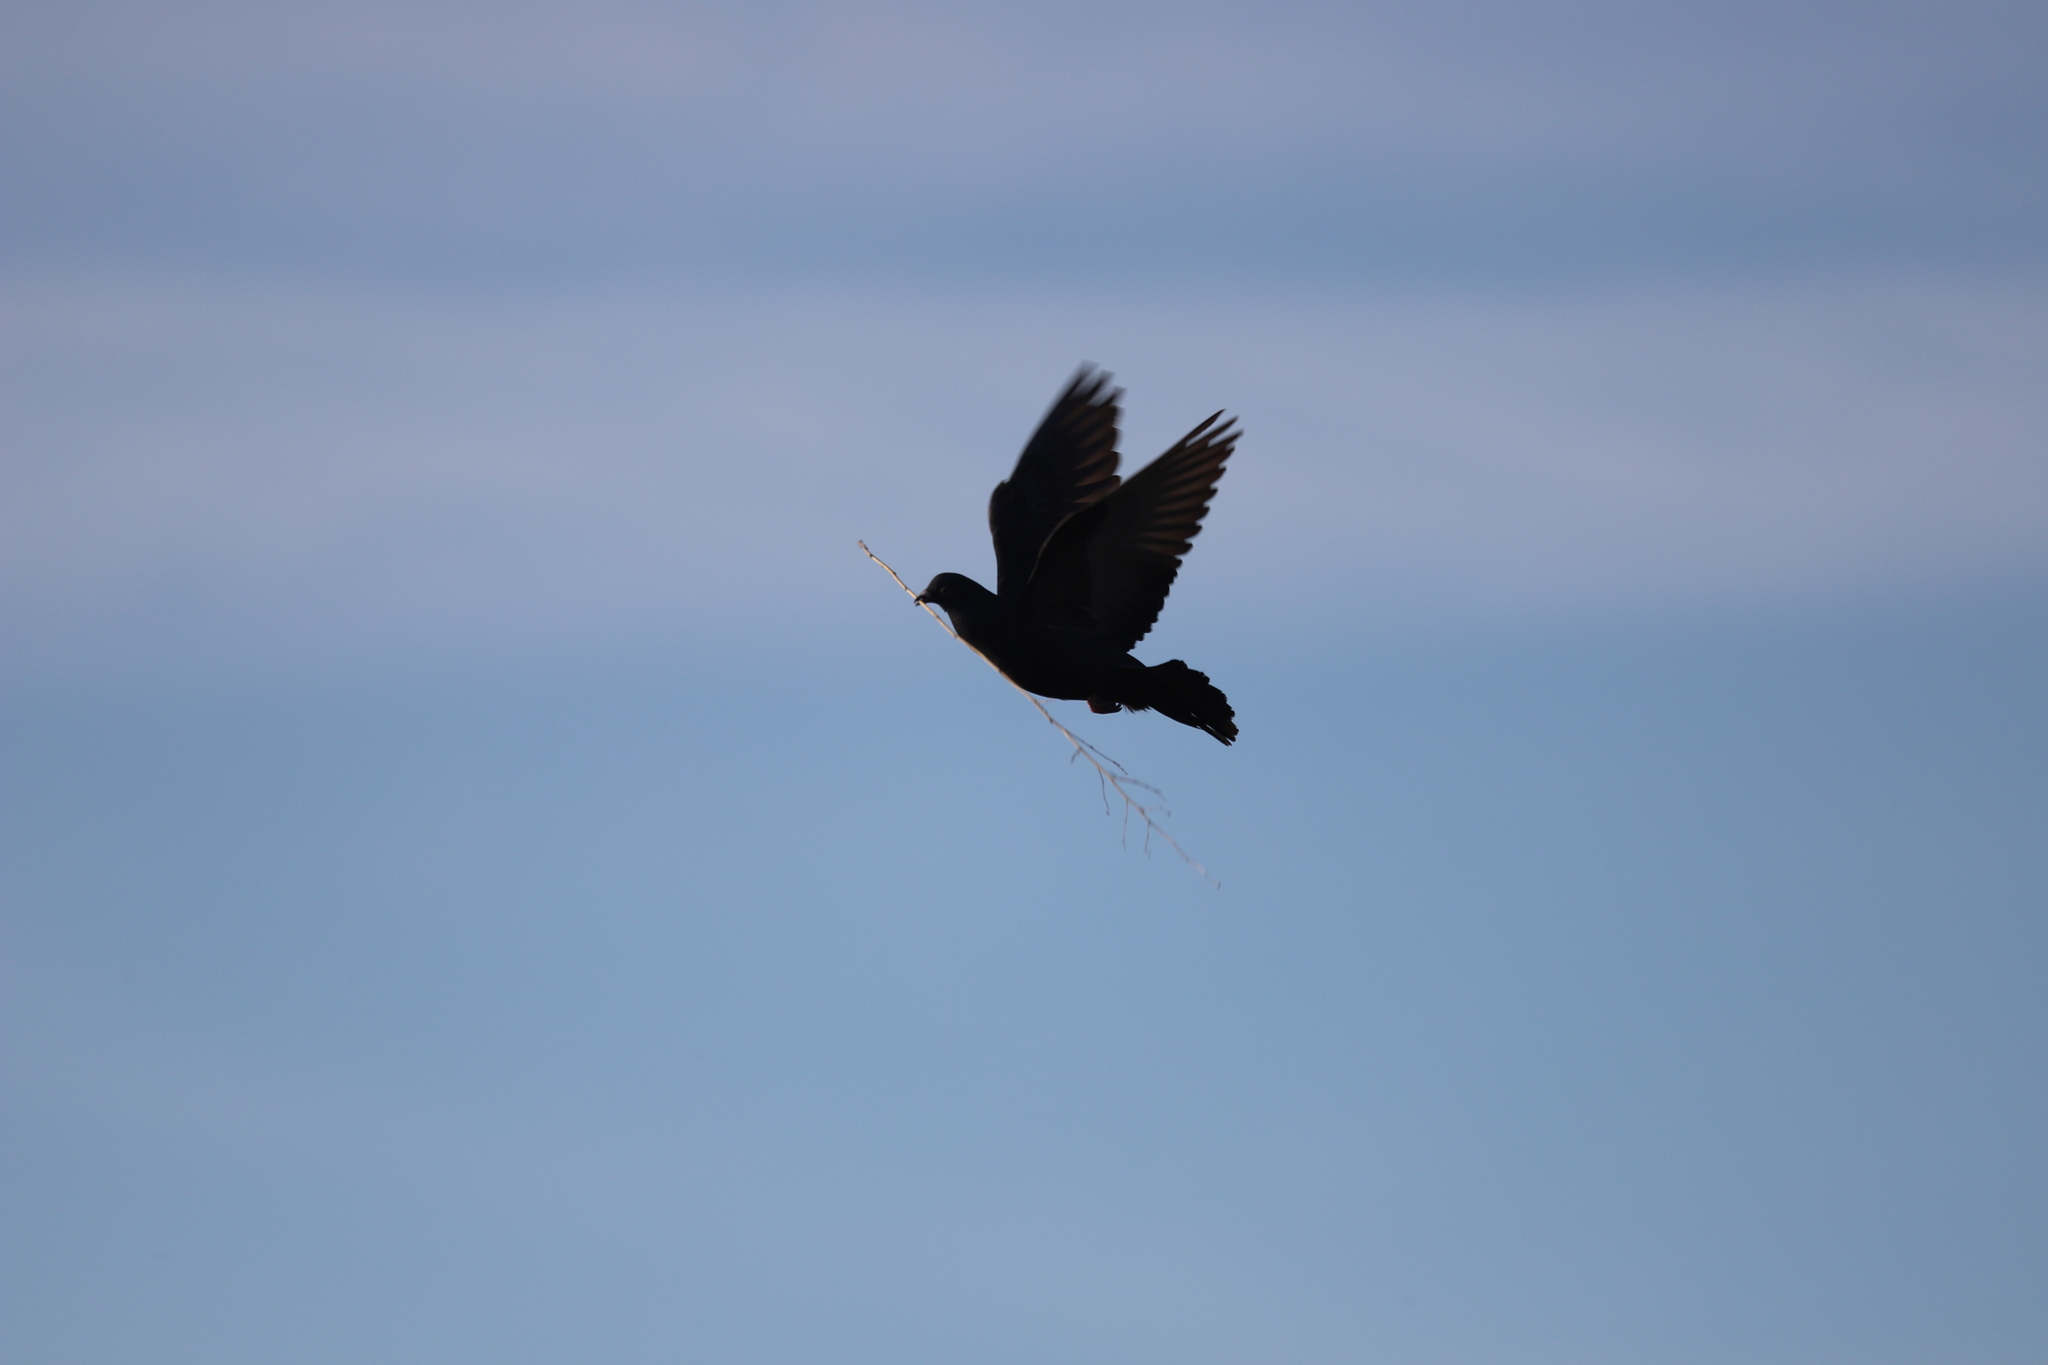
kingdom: Animalia
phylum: Chordata
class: Aves
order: Columbiformes
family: Columbidae
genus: Columba
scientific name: Columba livia
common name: Rock pigeon
